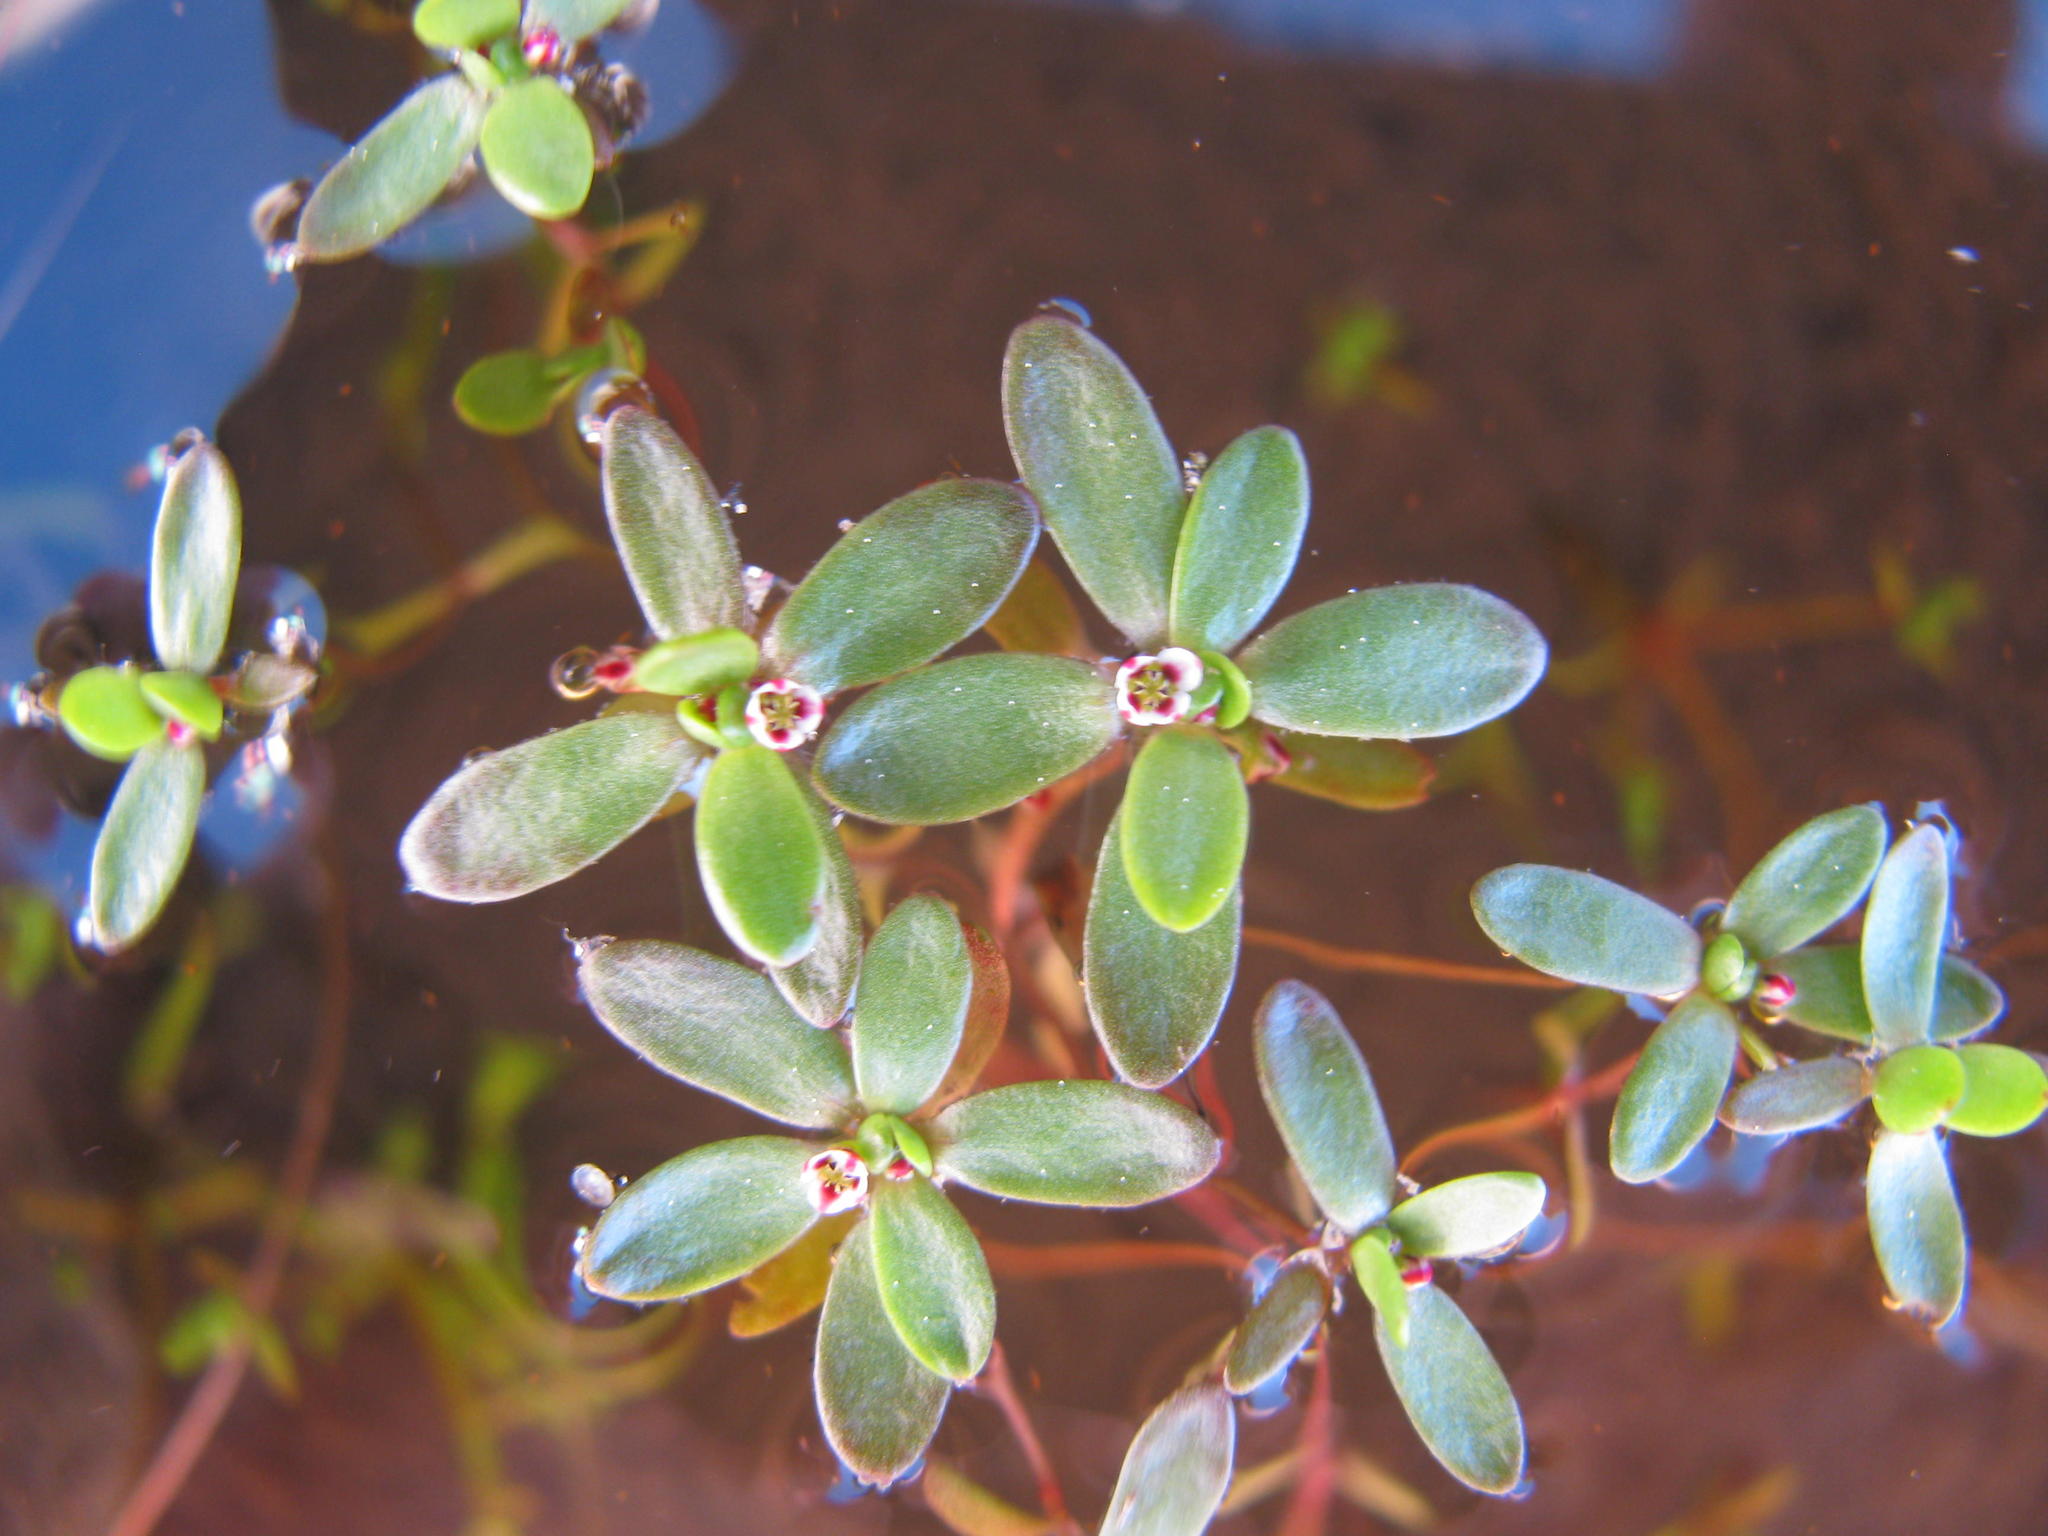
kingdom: Plantae
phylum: Tracheophyta
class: Magnoliopsida
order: Saxifragales
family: Crassulaceae
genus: Crassula
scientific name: Crassula natans
